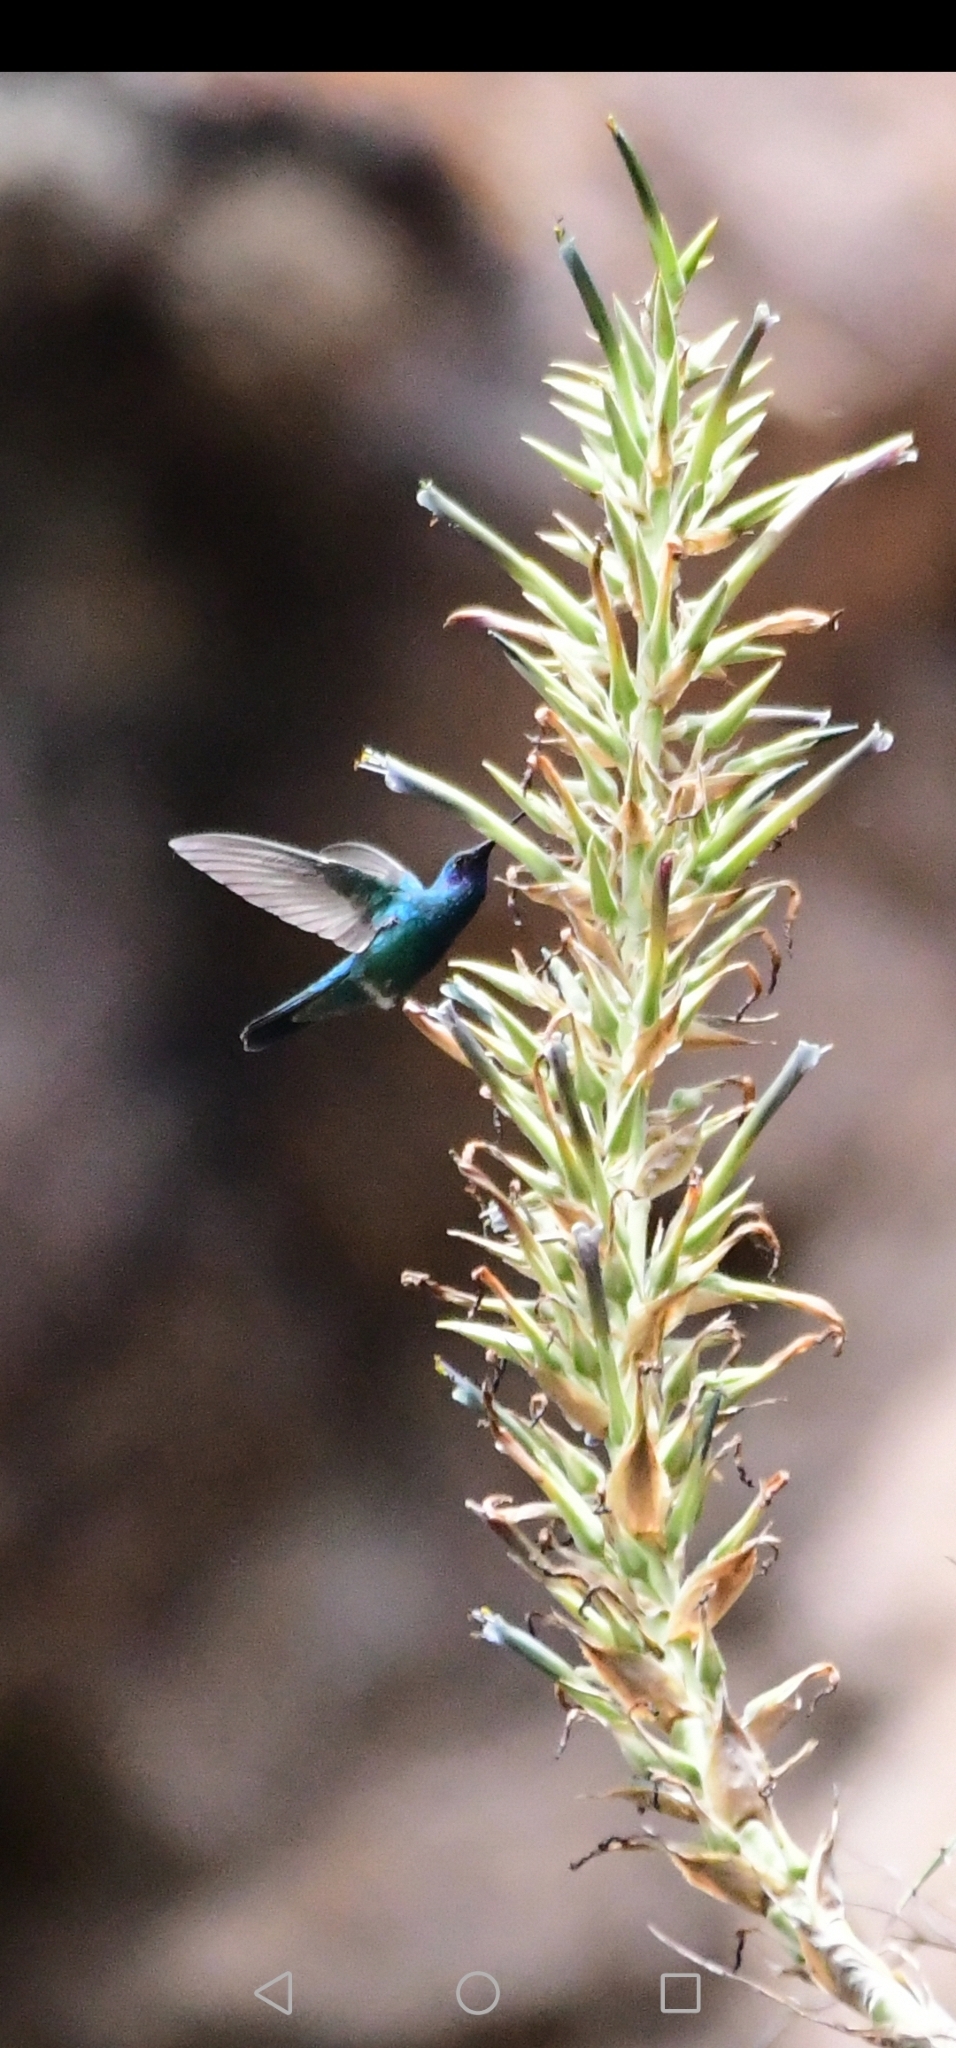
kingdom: Animalia
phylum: Chordata
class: Aves
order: Apodiformes
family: Trochilidae
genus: Colibri
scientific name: Colibri coruscans
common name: Sparkling violetear
